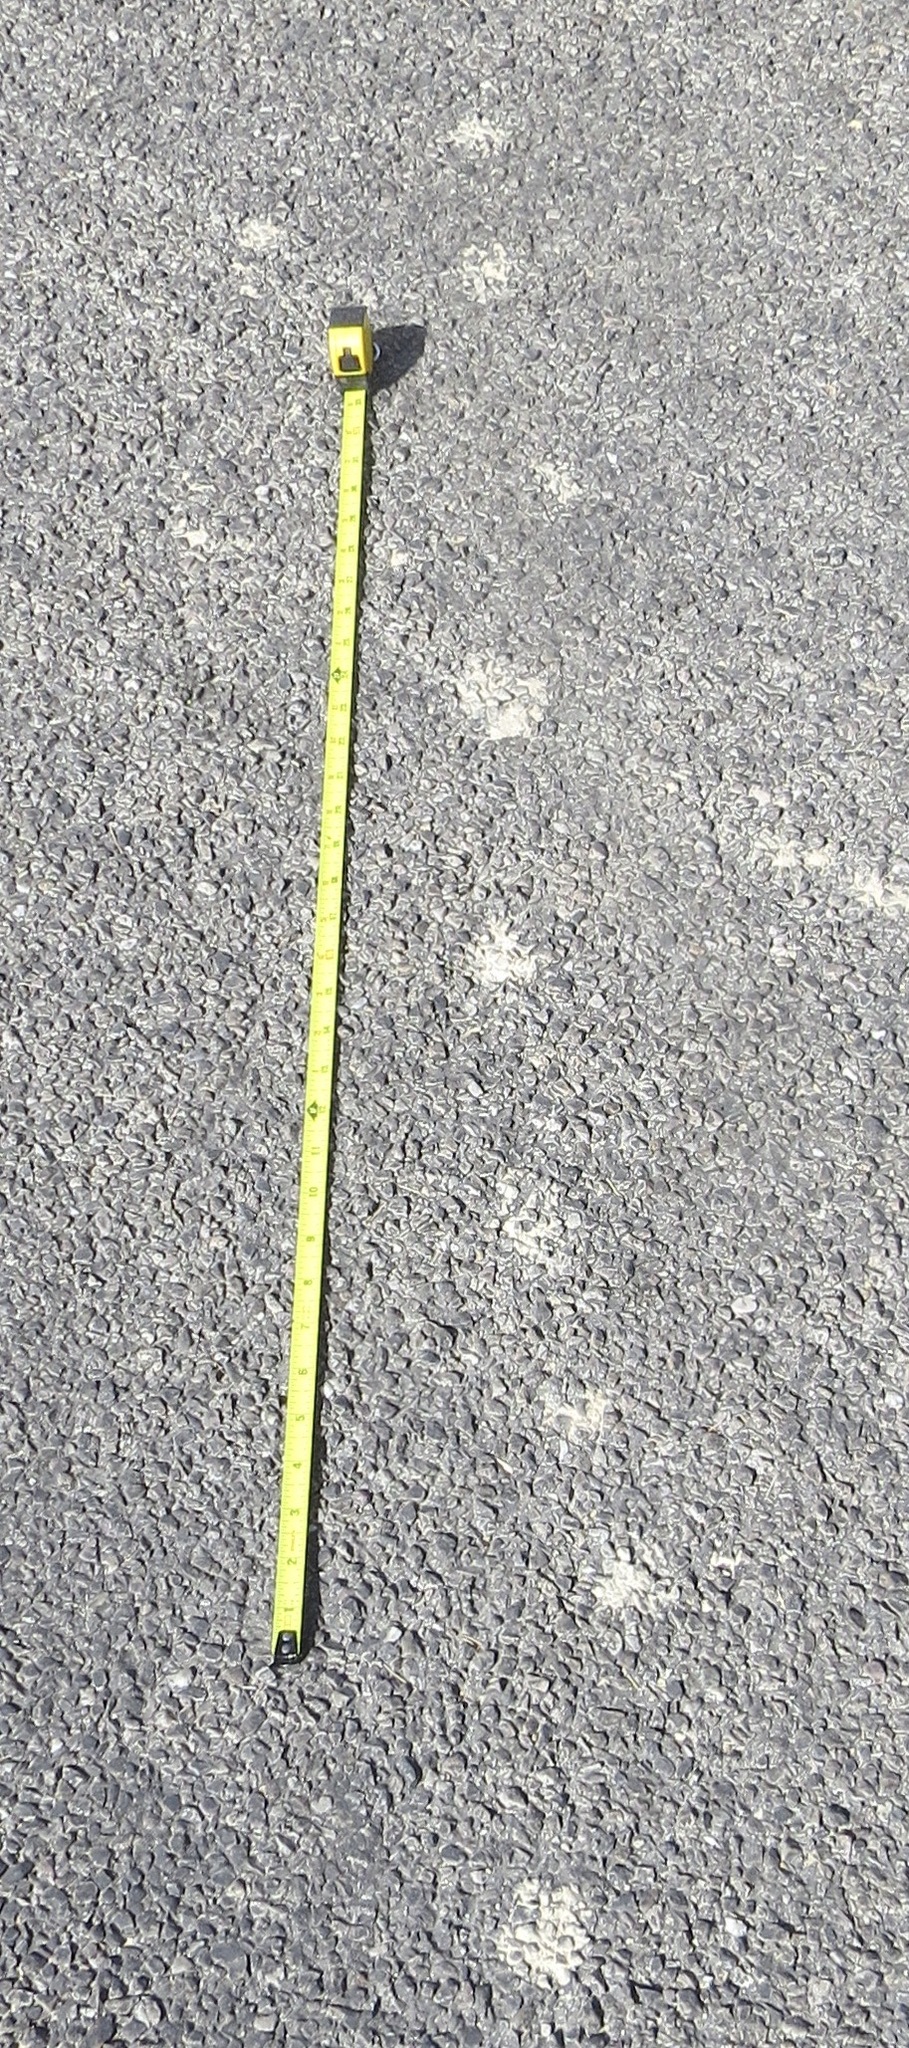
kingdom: Animalia
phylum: Chordata
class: Mammalia
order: Carnivora
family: Canidae
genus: Vulpes
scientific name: Vulpes macrotis
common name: Kit fox
